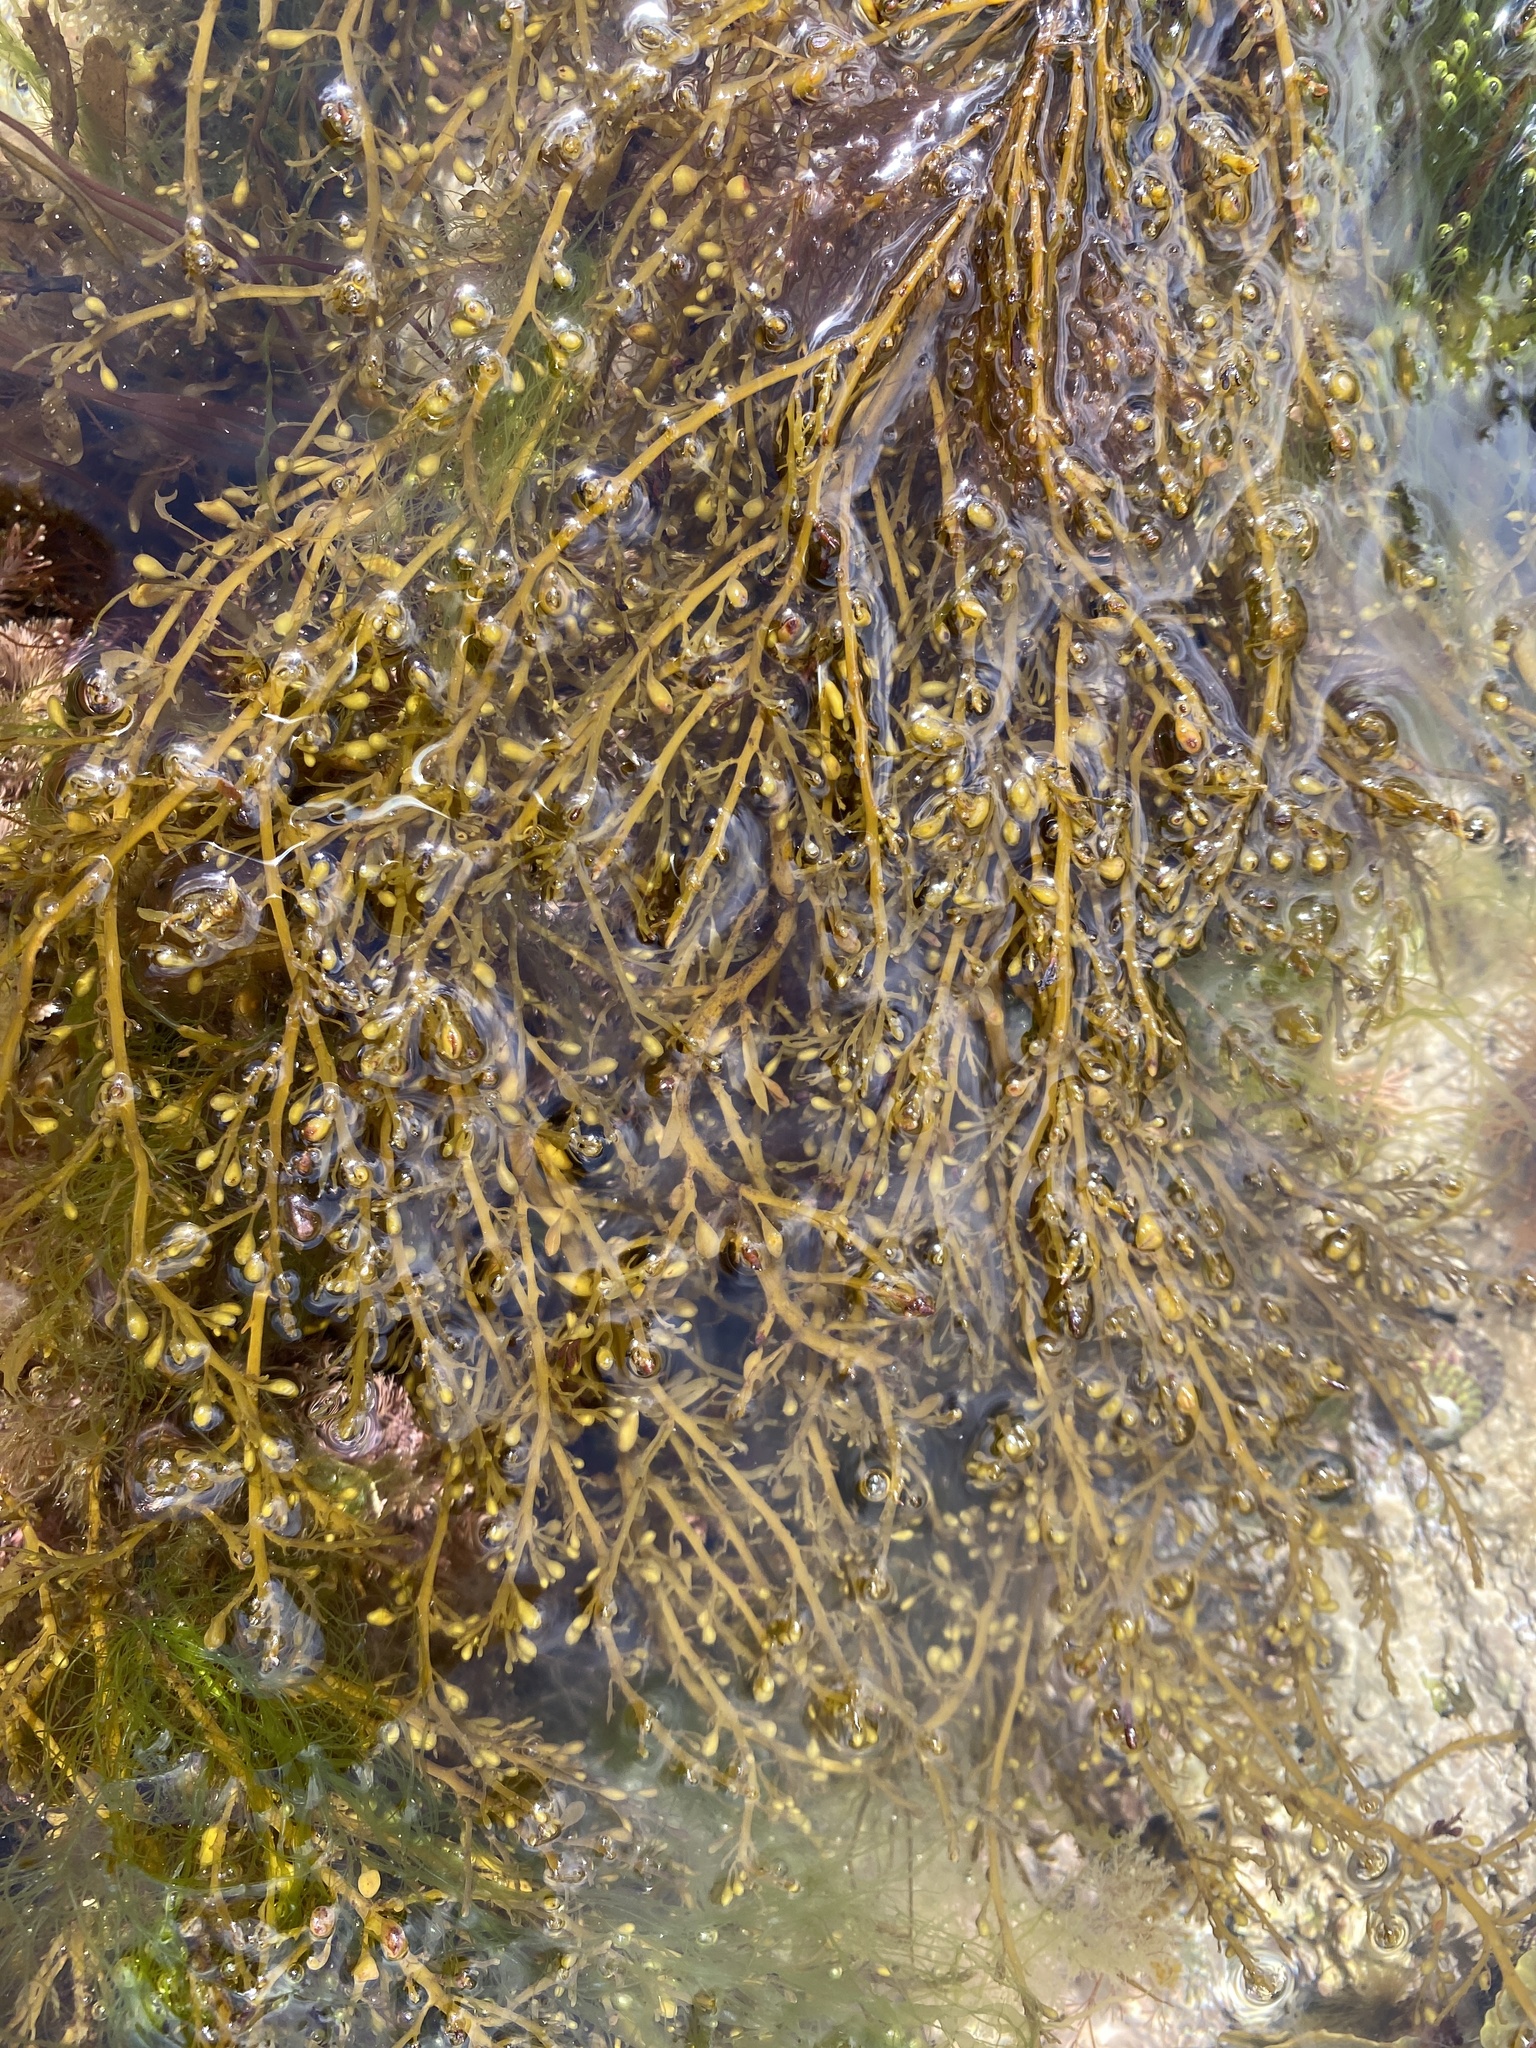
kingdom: Chromista
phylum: Ochrophyta
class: Phaeophyceae
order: Fucales
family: Sargassaceae
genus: Sargassum
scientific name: Sargassum muticum
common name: Japweed
